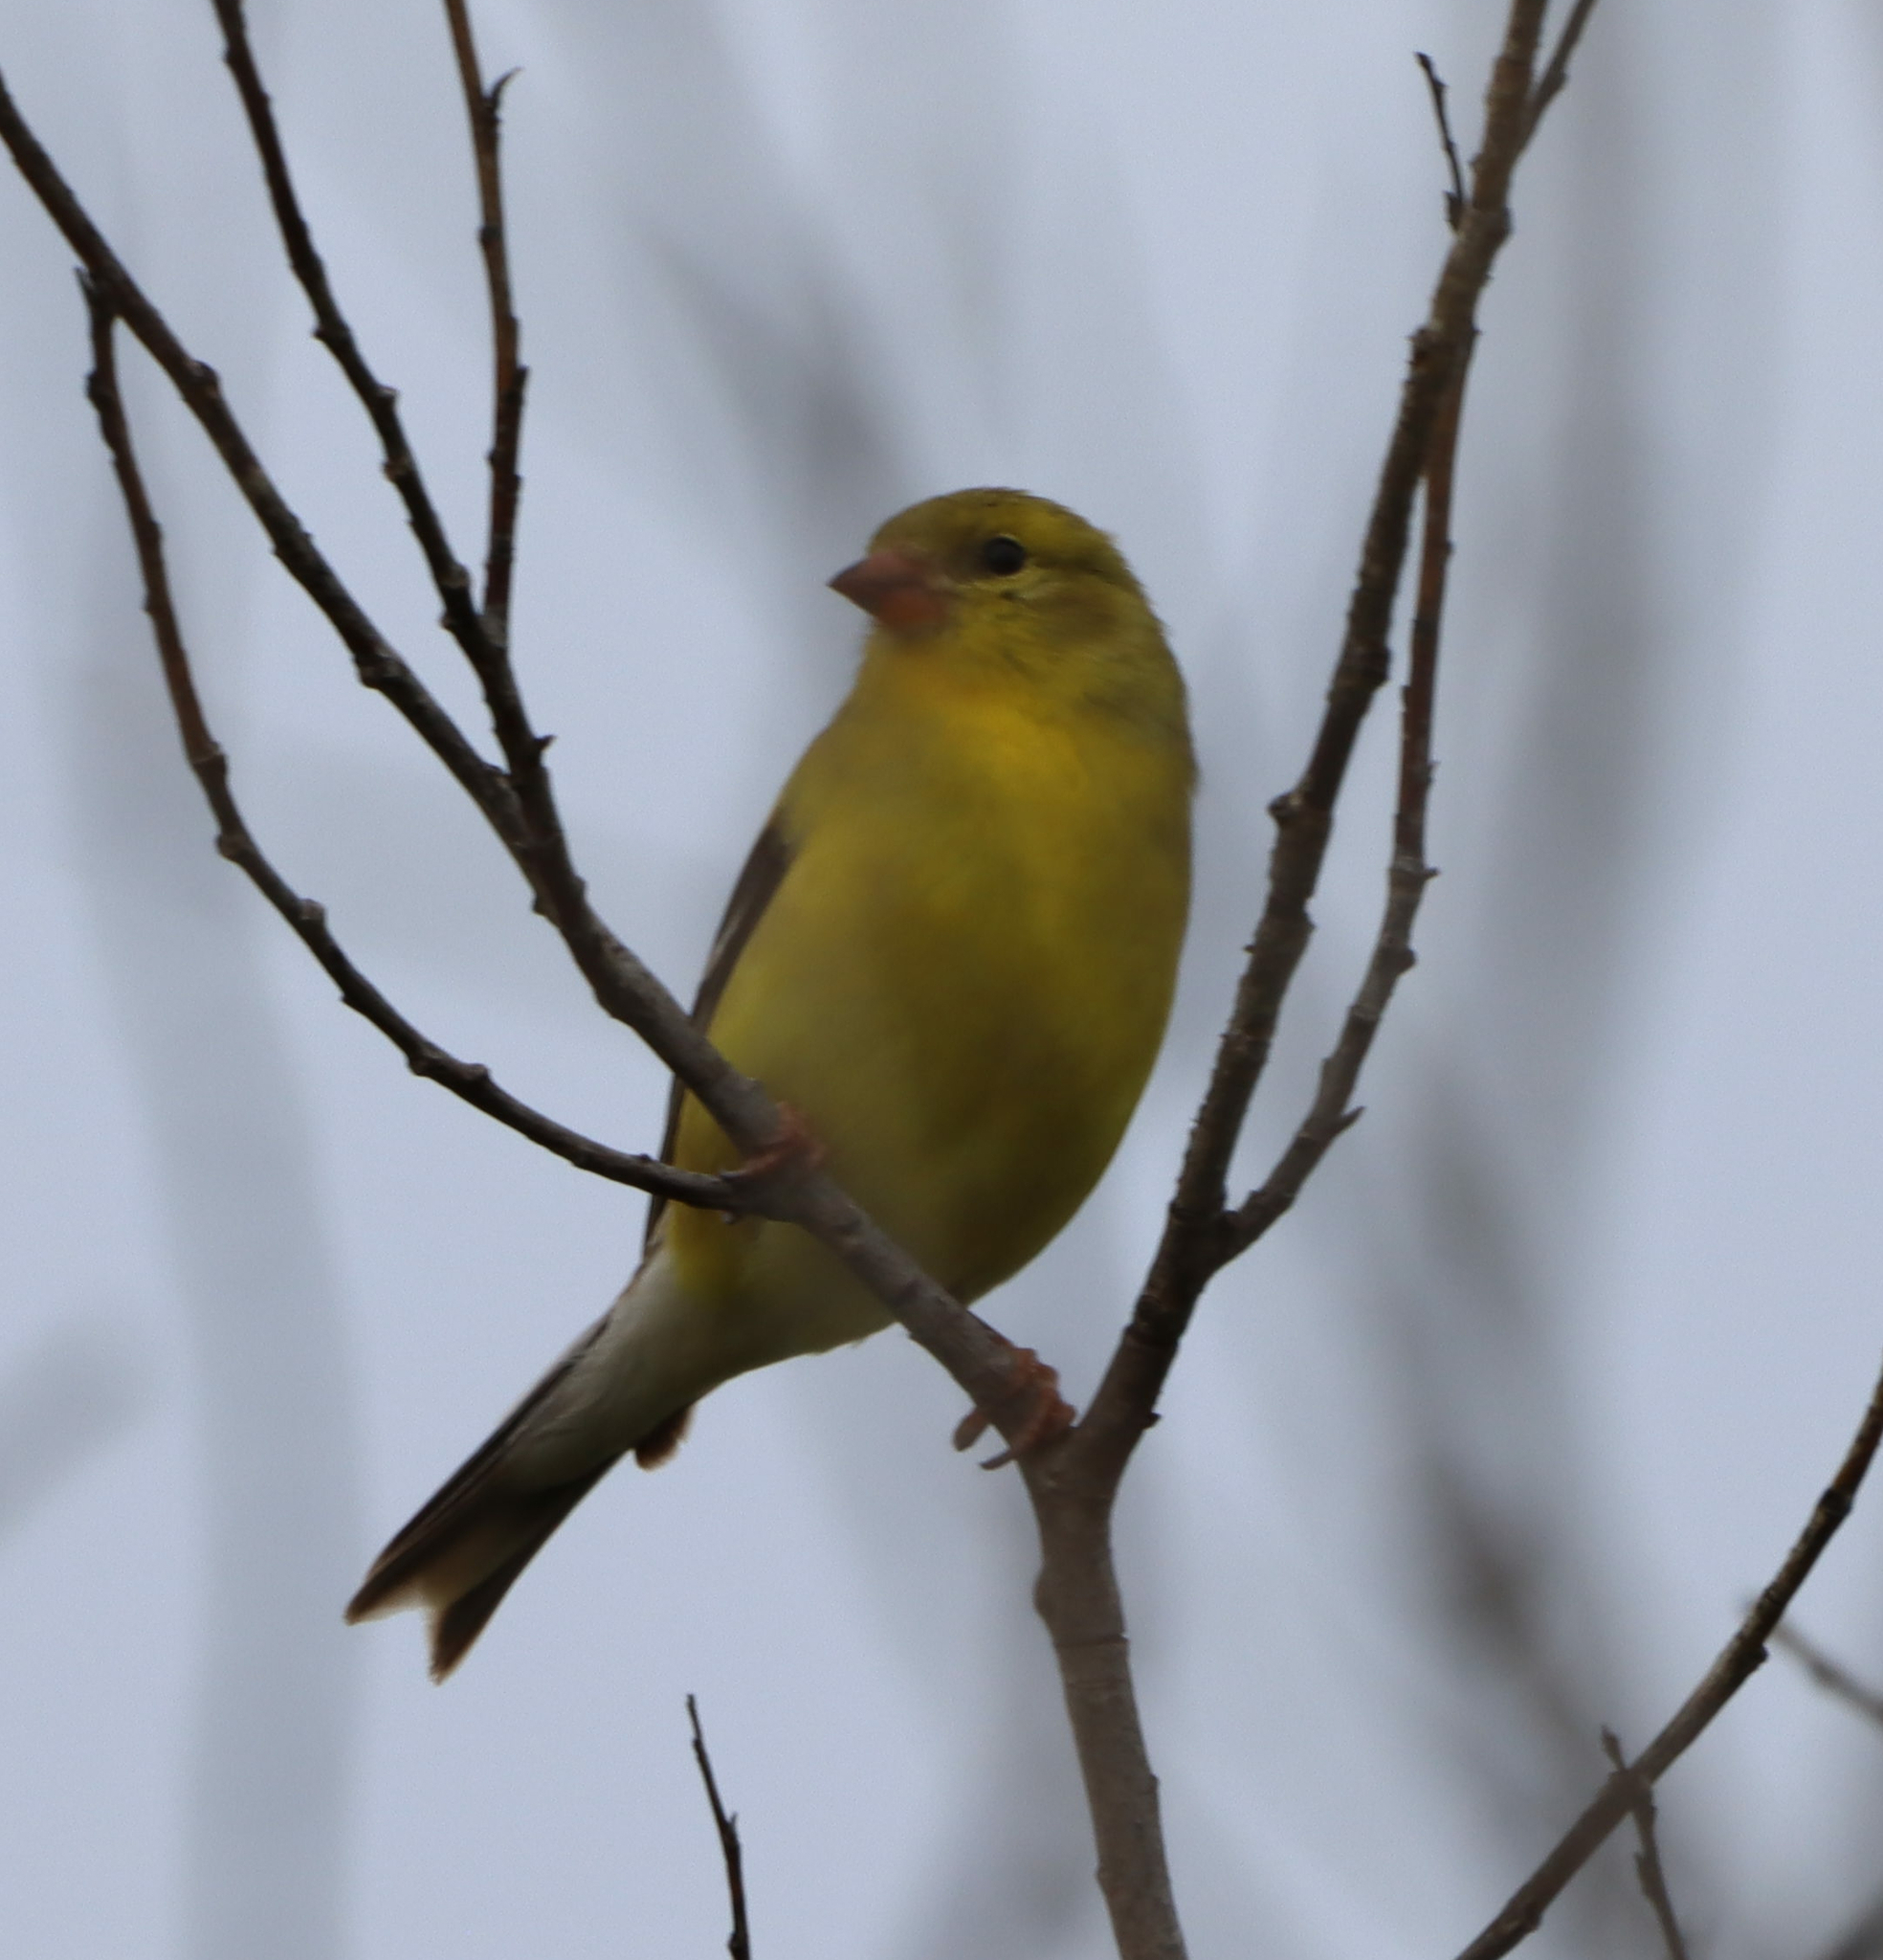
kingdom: Animalia
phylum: Chordata
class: Aves
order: Passeriformes
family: Fringillidae
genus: Spinus
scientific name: Spinus tristis
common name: American goldfinch
